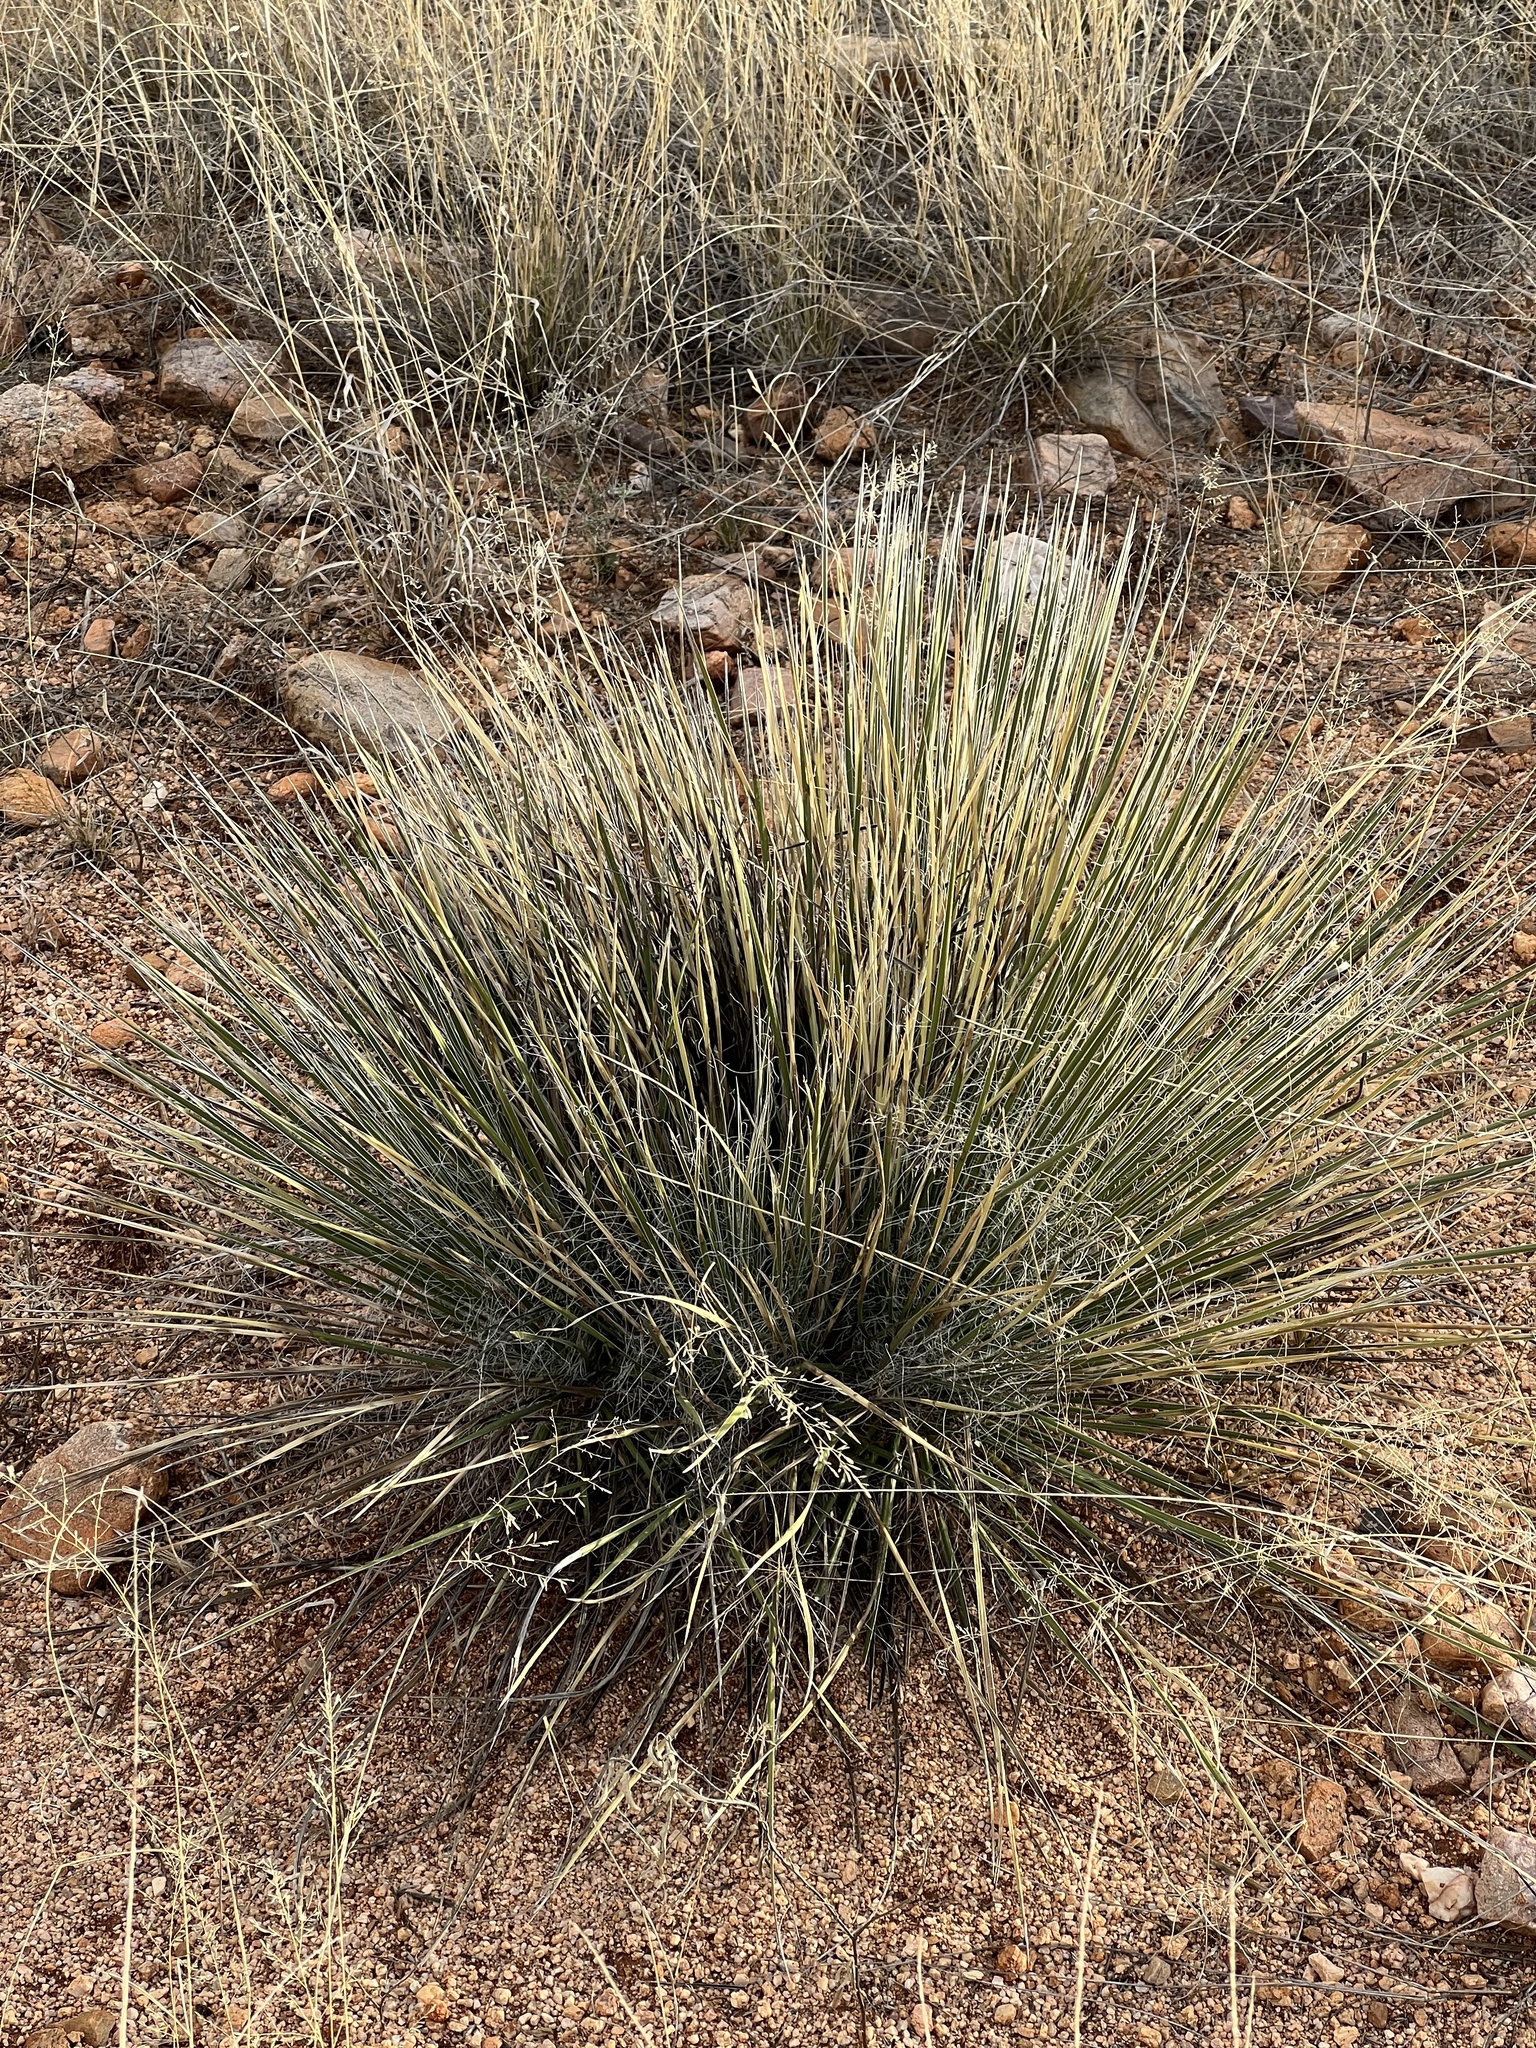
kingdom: Plantae
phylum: Tracheophyta
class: Liliopsida
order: Asparagales
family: Asparagaceae
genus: Yucca
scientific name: Yucca elata
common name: Palmella
